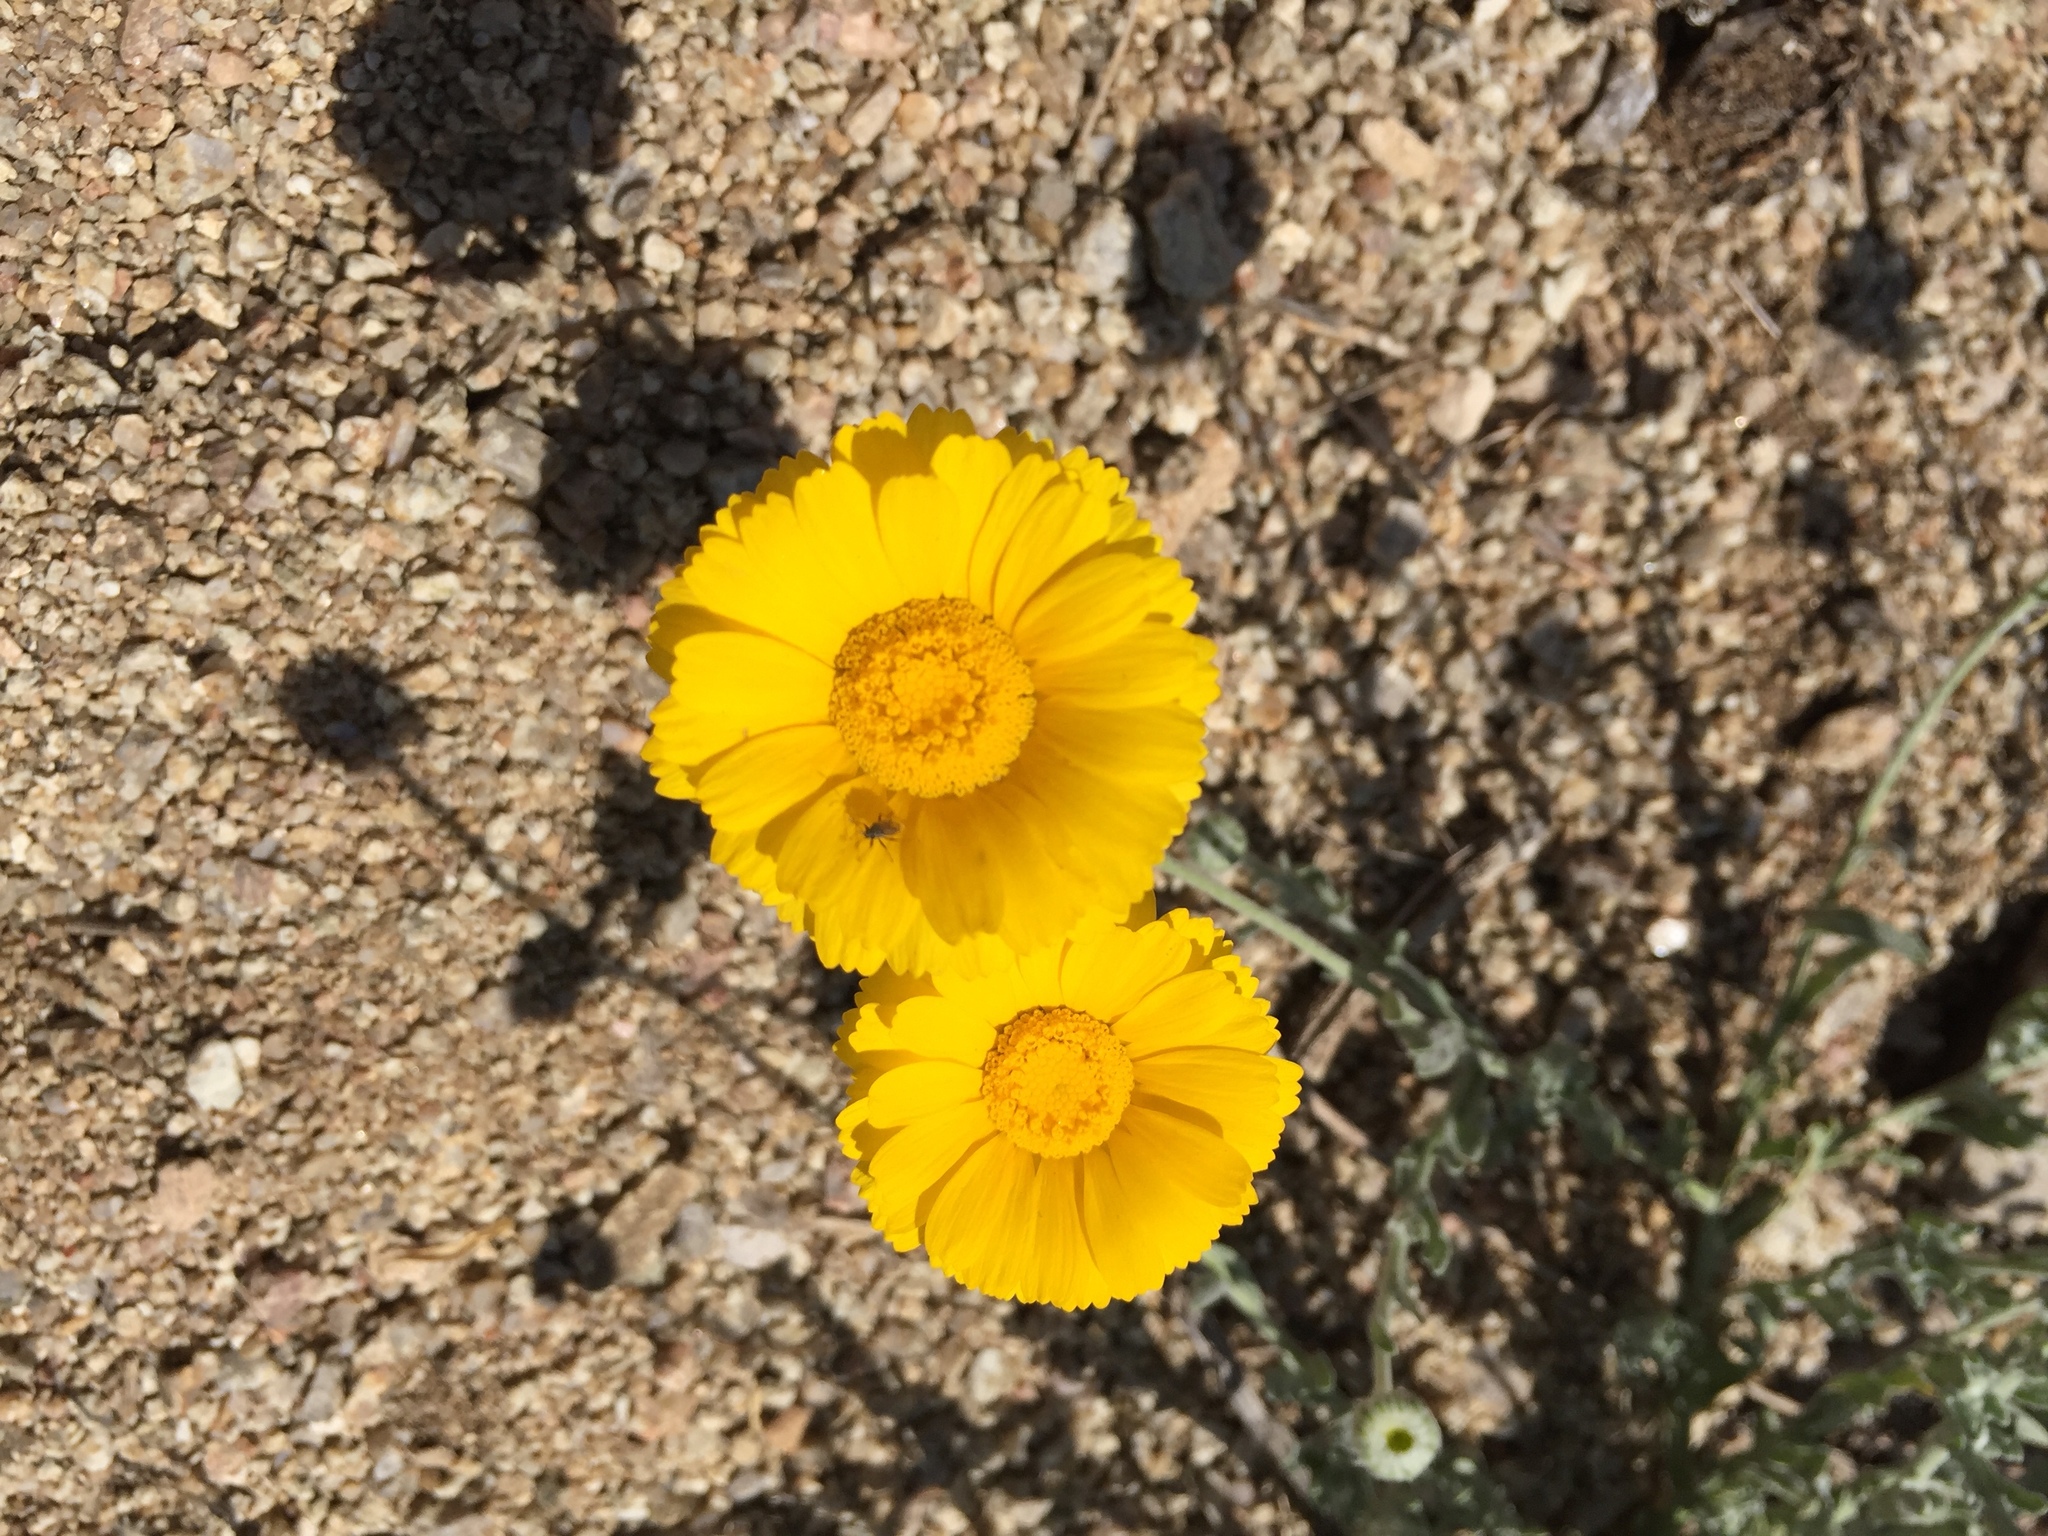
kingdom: Plantae
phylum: Tracheophyta
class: Magnoliopsida
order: Asterales
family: Asteraceae
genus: Baileya
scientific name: Baileya multiradiata
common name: Desert-marigold
